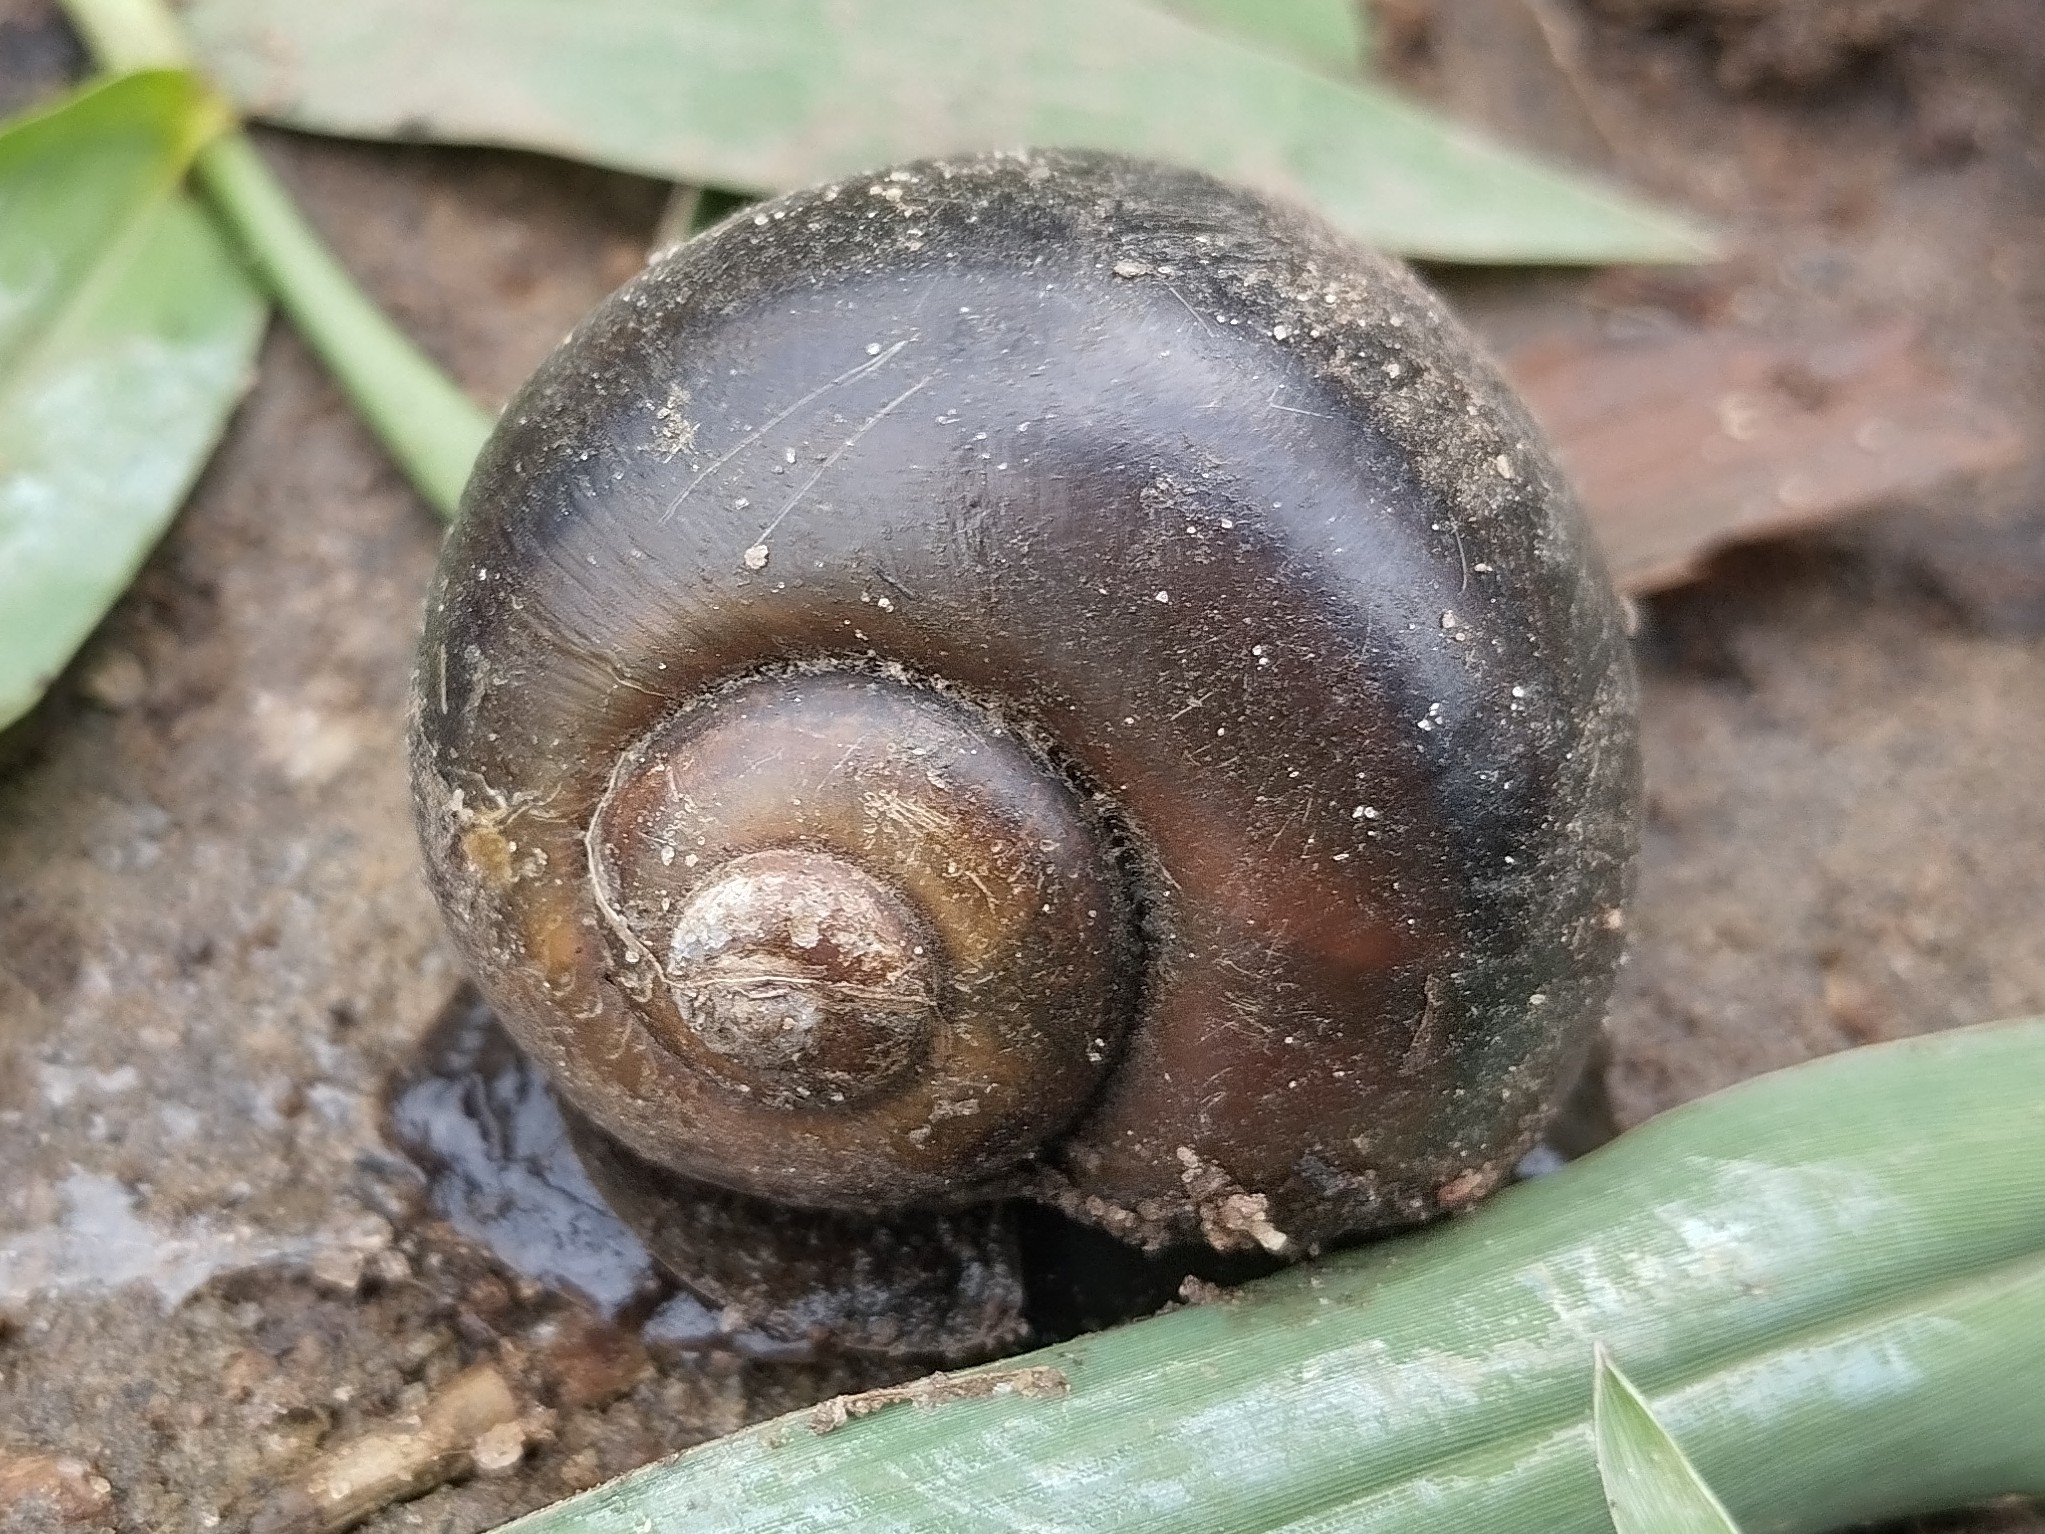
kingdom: Animalia
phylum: Mollusca
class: Gastropoda
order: Architaenioglossa
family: Ampullariidae
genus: Pomacea
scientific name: Pomacea canaliculata
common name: Channeled applesnail
